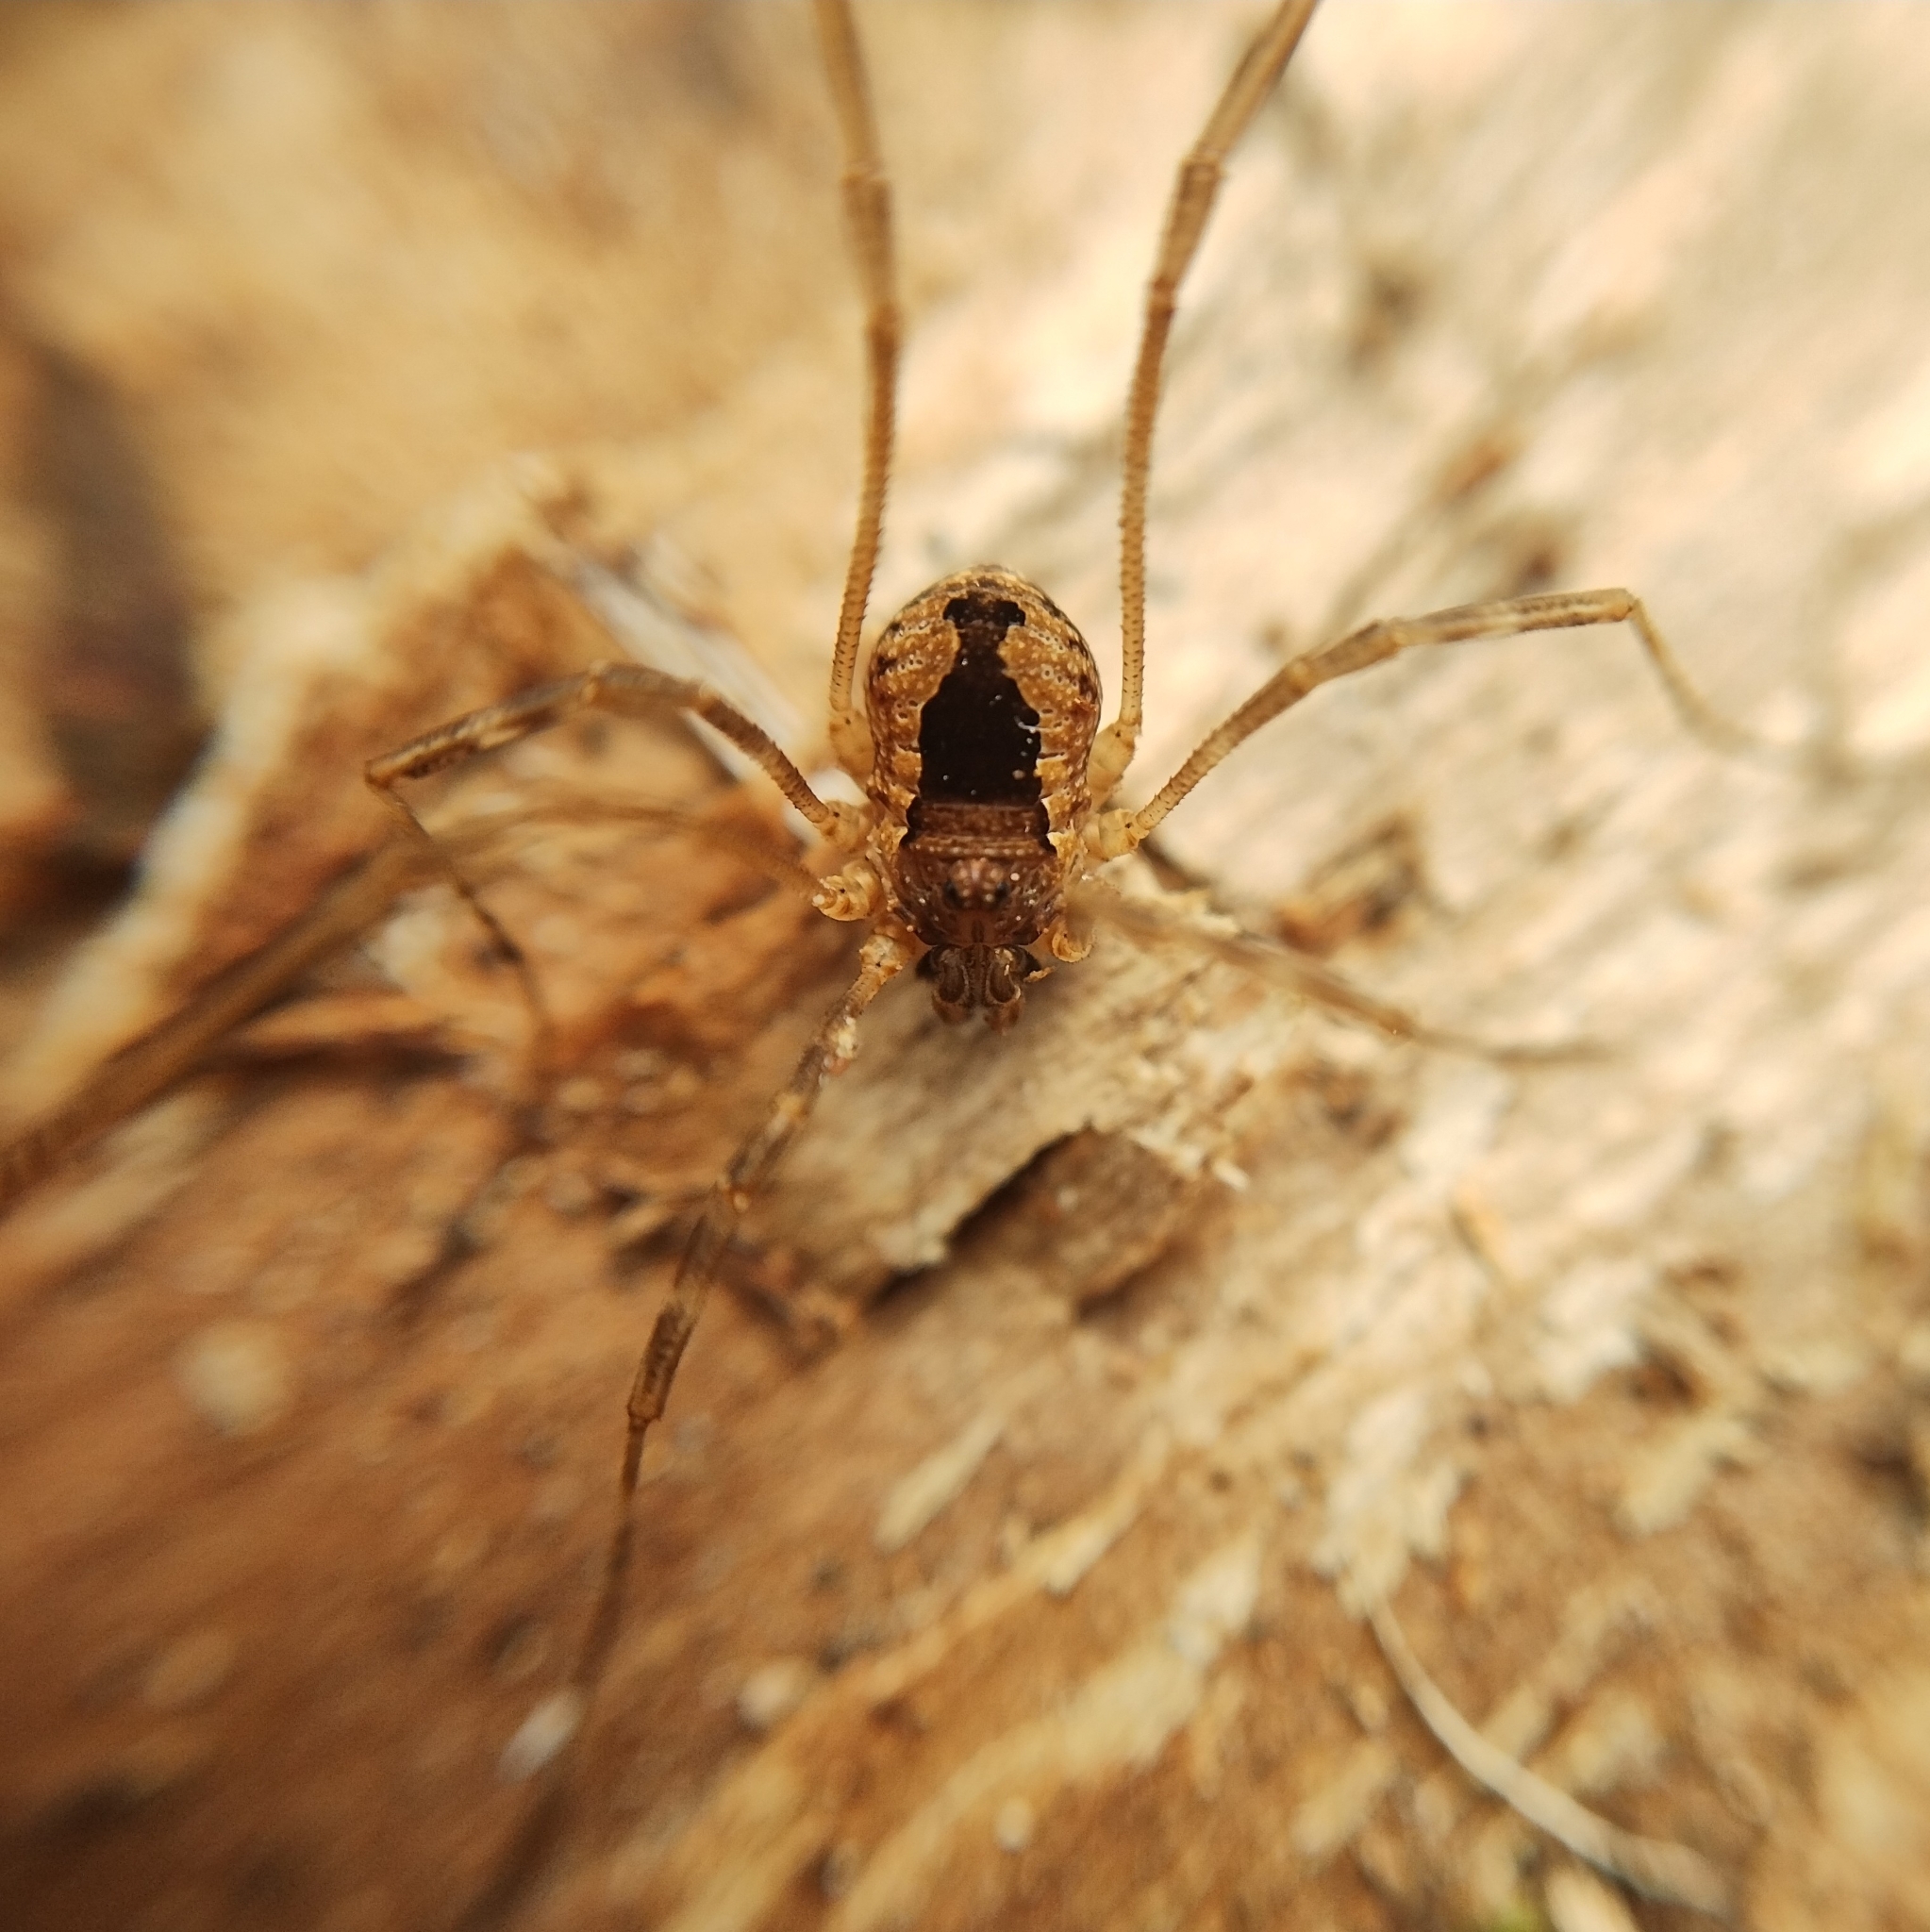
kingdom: Animalia
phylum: Arthropoda
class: Arachnida
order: Opiliones
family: Phalangiidae
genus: Rilaena
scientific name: Rilaena balcanica
